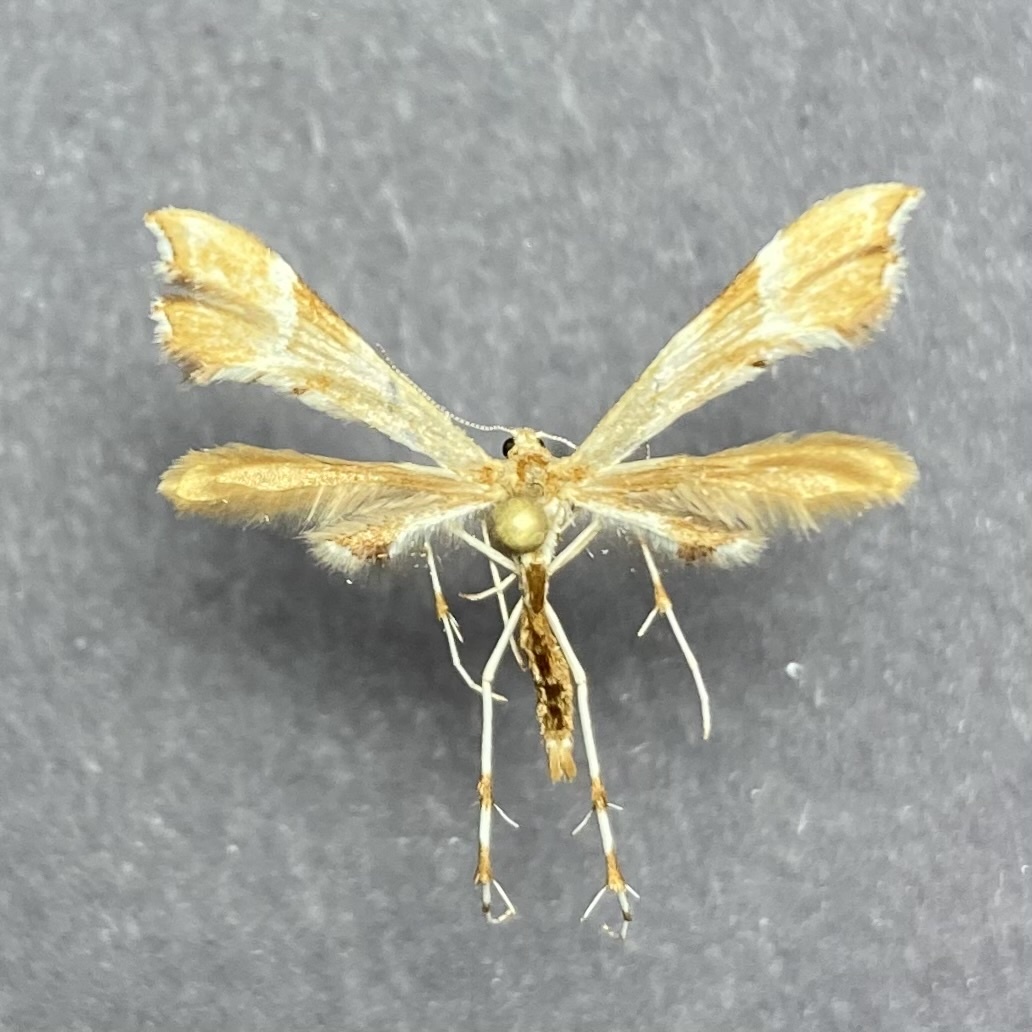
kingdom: Animalia
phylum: Arthropoda
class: Insecta
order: Lepidoptera
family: Pterophoridae
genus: Cnaemidophorus
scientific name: Cnaemidophorus rhododactyla
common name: Rose plume
